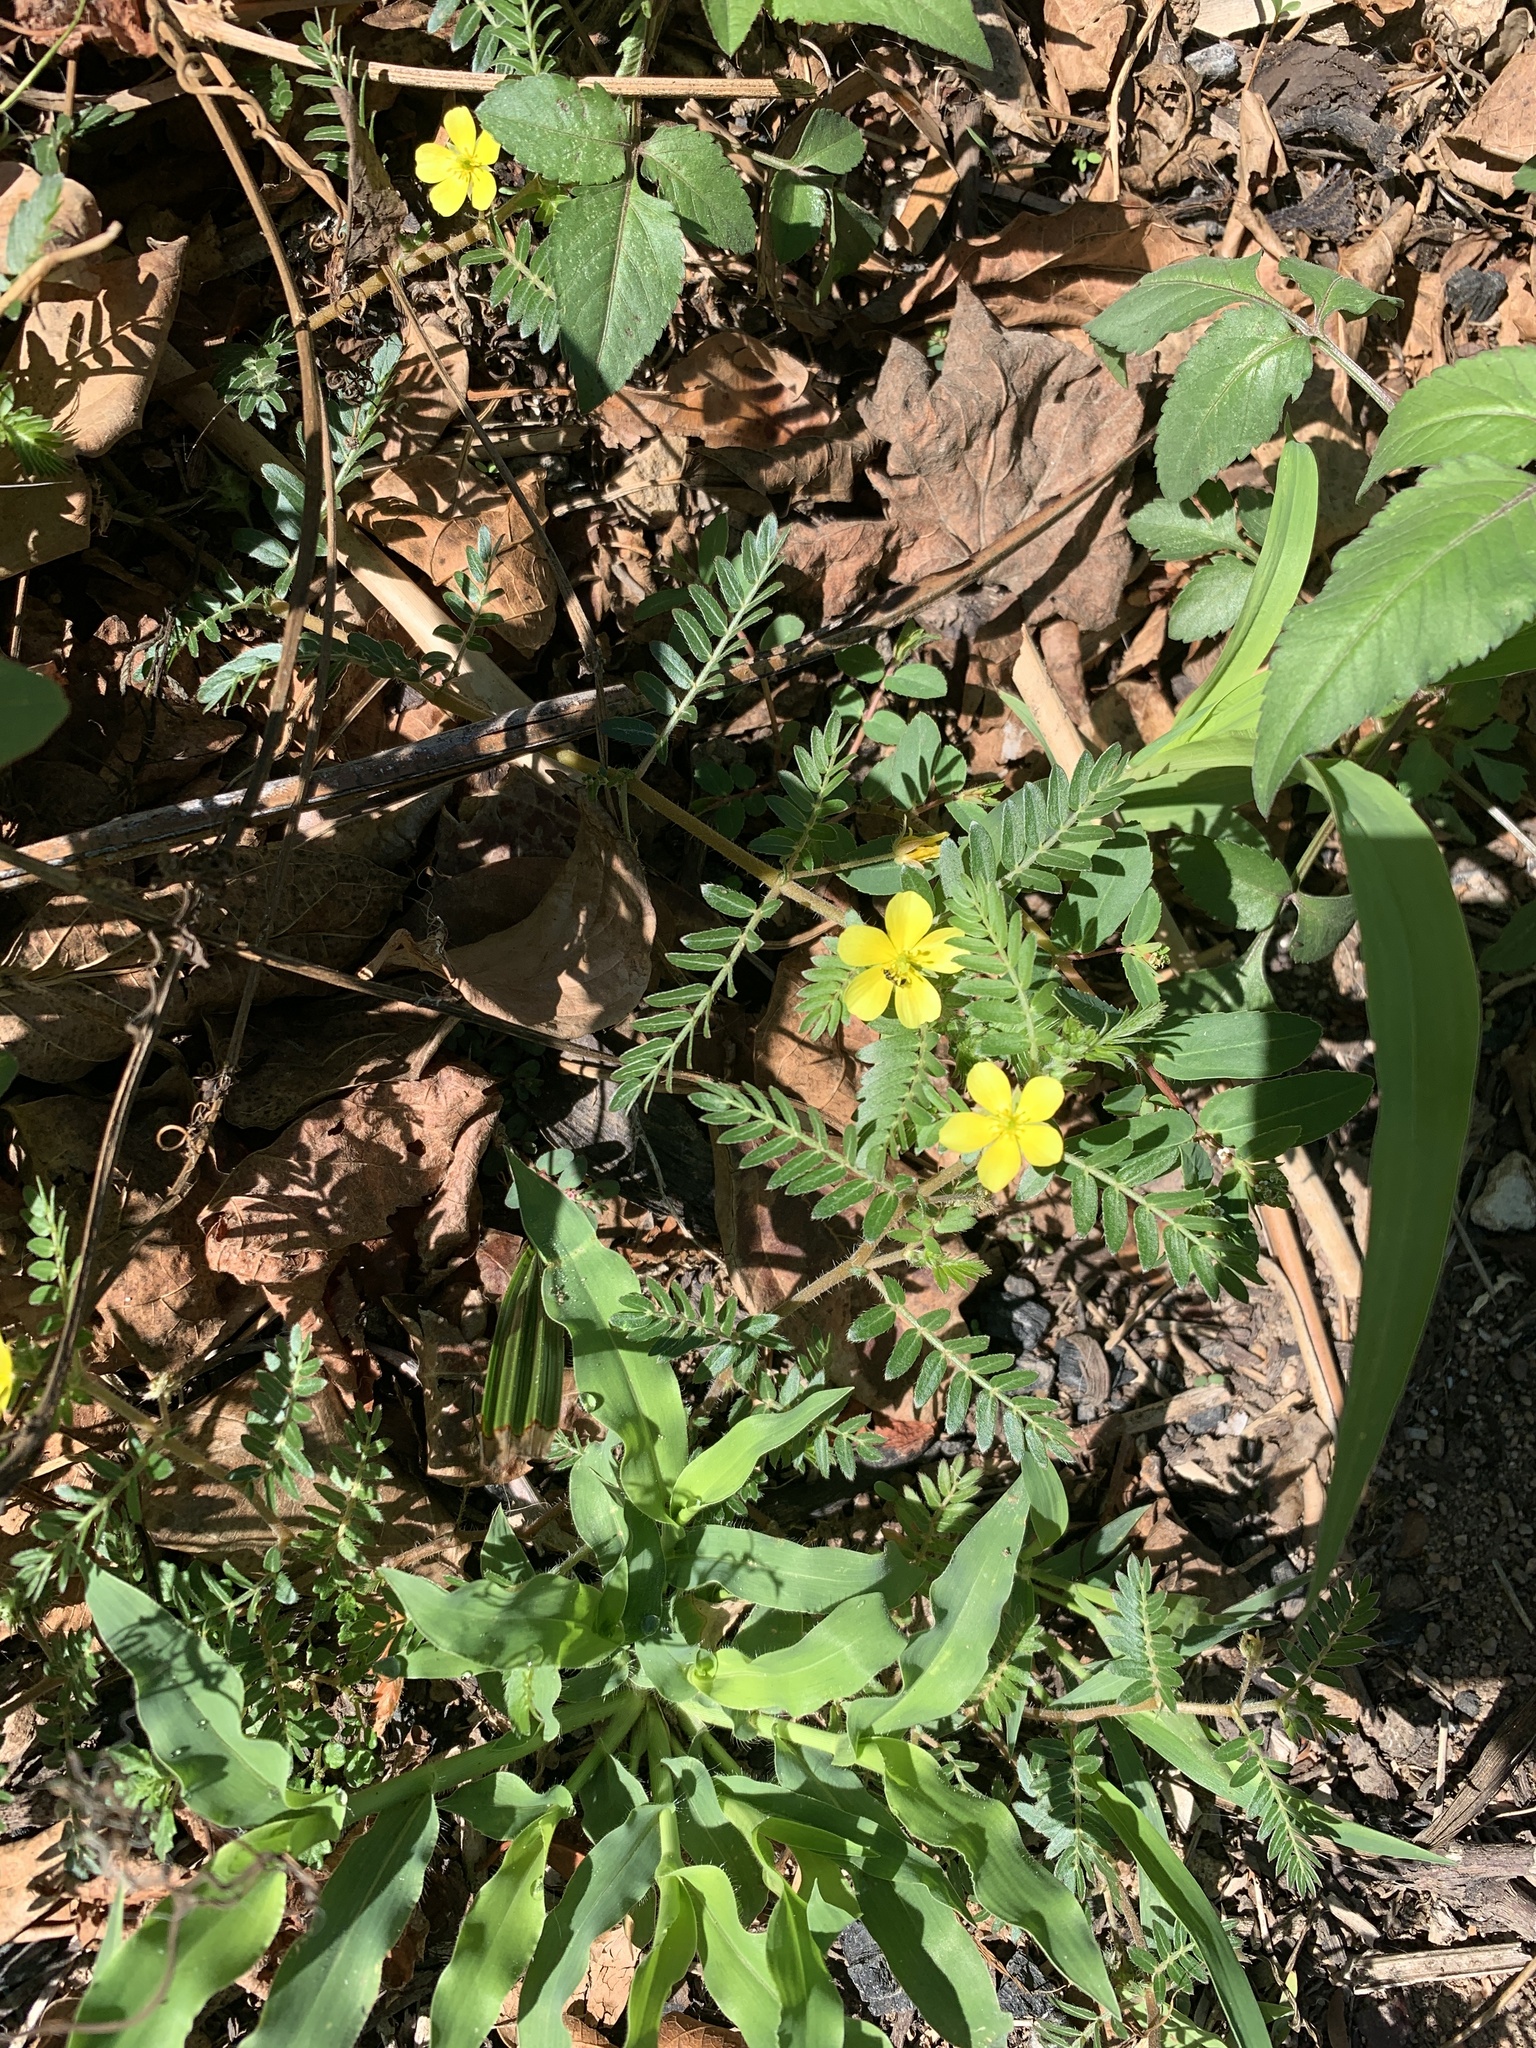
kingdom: Plantae
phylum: Tracheophyta
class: Magnoliopsida
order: Zygophyllales
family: Zygophyllaceae
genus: Tribulus
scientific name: Tribulus terrestris
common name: Puncturevine
